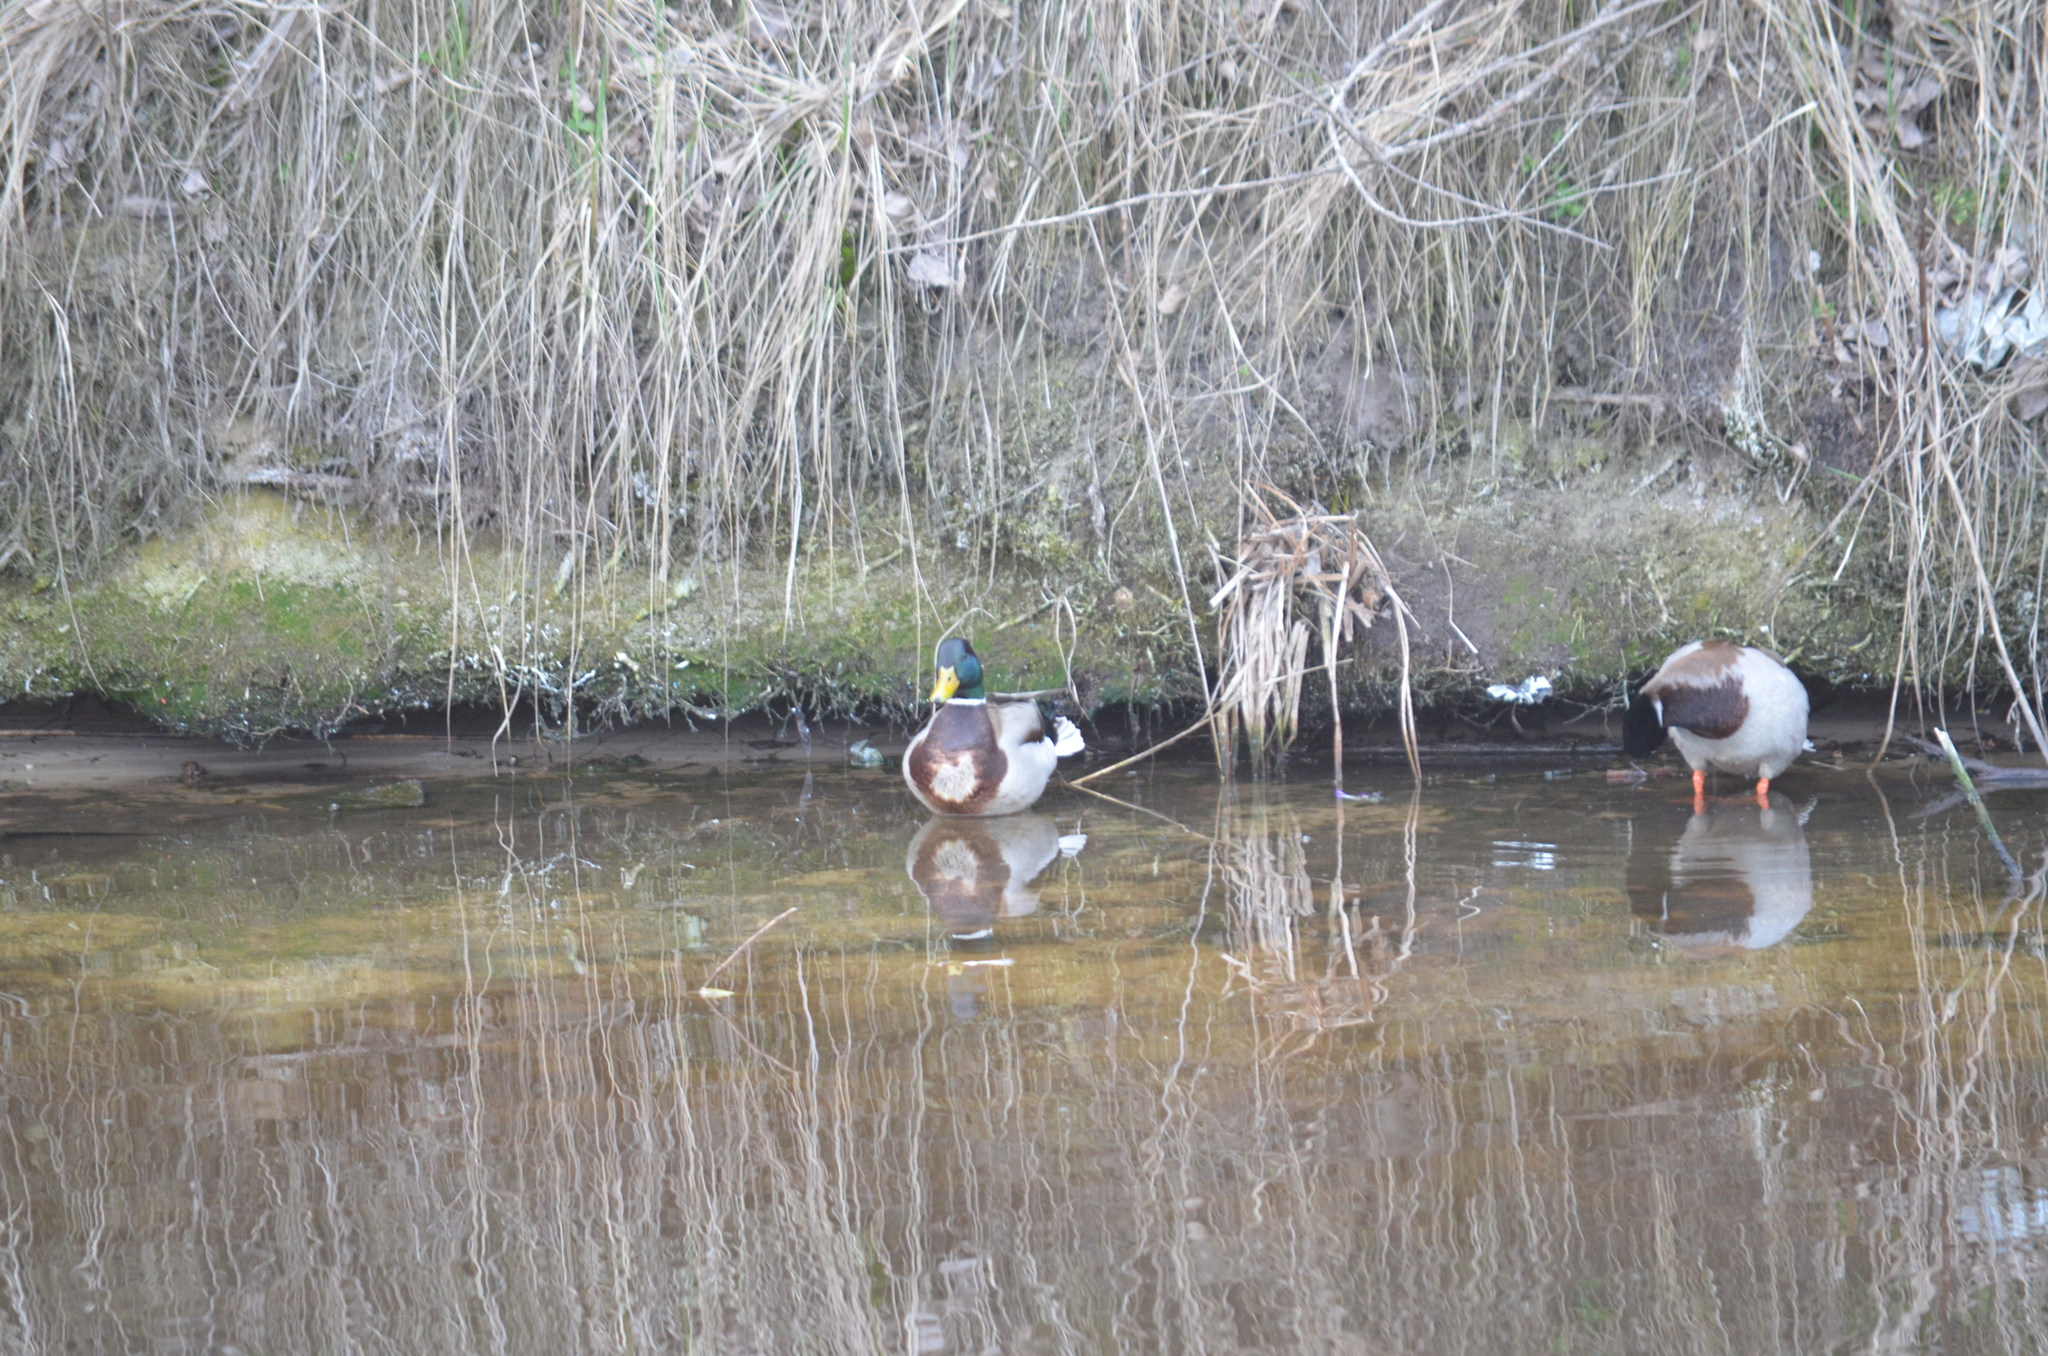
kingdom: Animalia
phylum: Chordata
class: Aves
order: Anseriformes
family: Anatidae
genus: Anas
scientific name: Anas platyrhynchos
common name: Mallard
